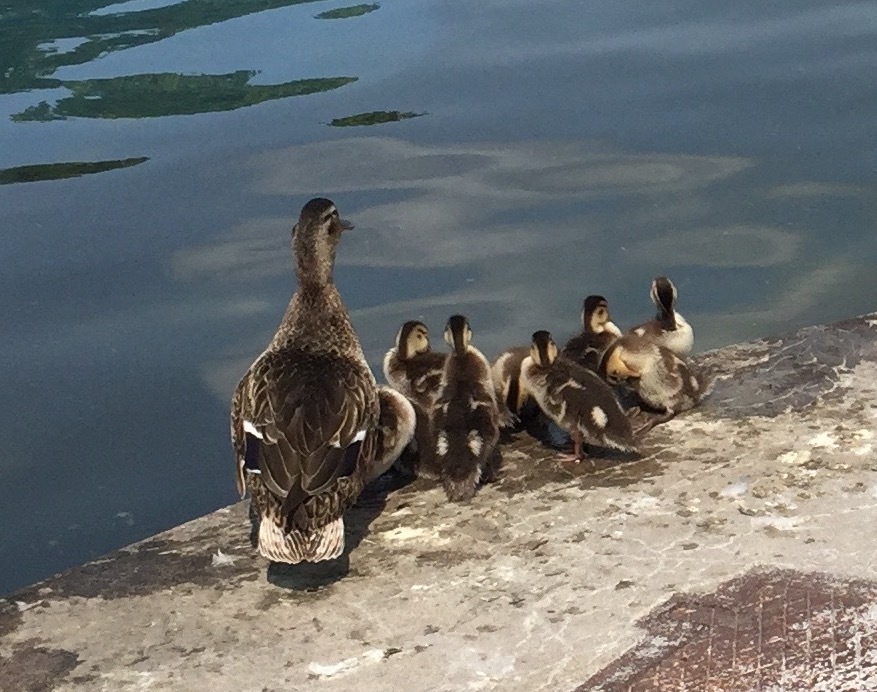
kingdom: Animalia
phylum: Chordata
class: Aves
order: Anseriformes
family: Anatidae
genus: Anas
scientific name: Anas platyrhynchos
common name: Mallard
